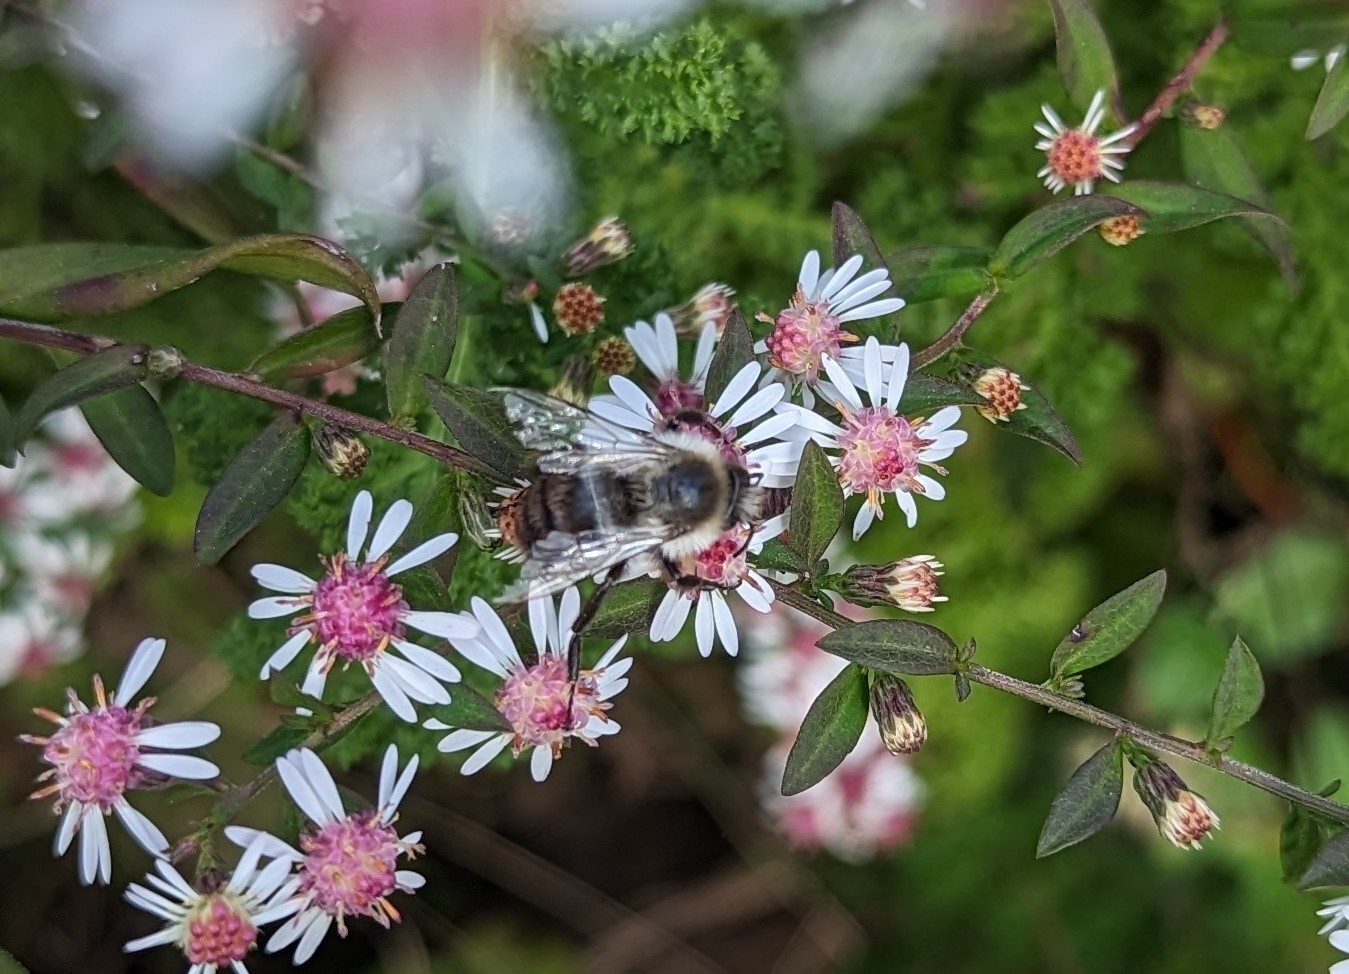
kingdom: Animalia
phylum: Arthropoda
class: Insecta
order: Hymenoptera
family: Apidae
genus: Bombus
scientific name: Bombus impatiens
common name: Common eastern bumble bee
